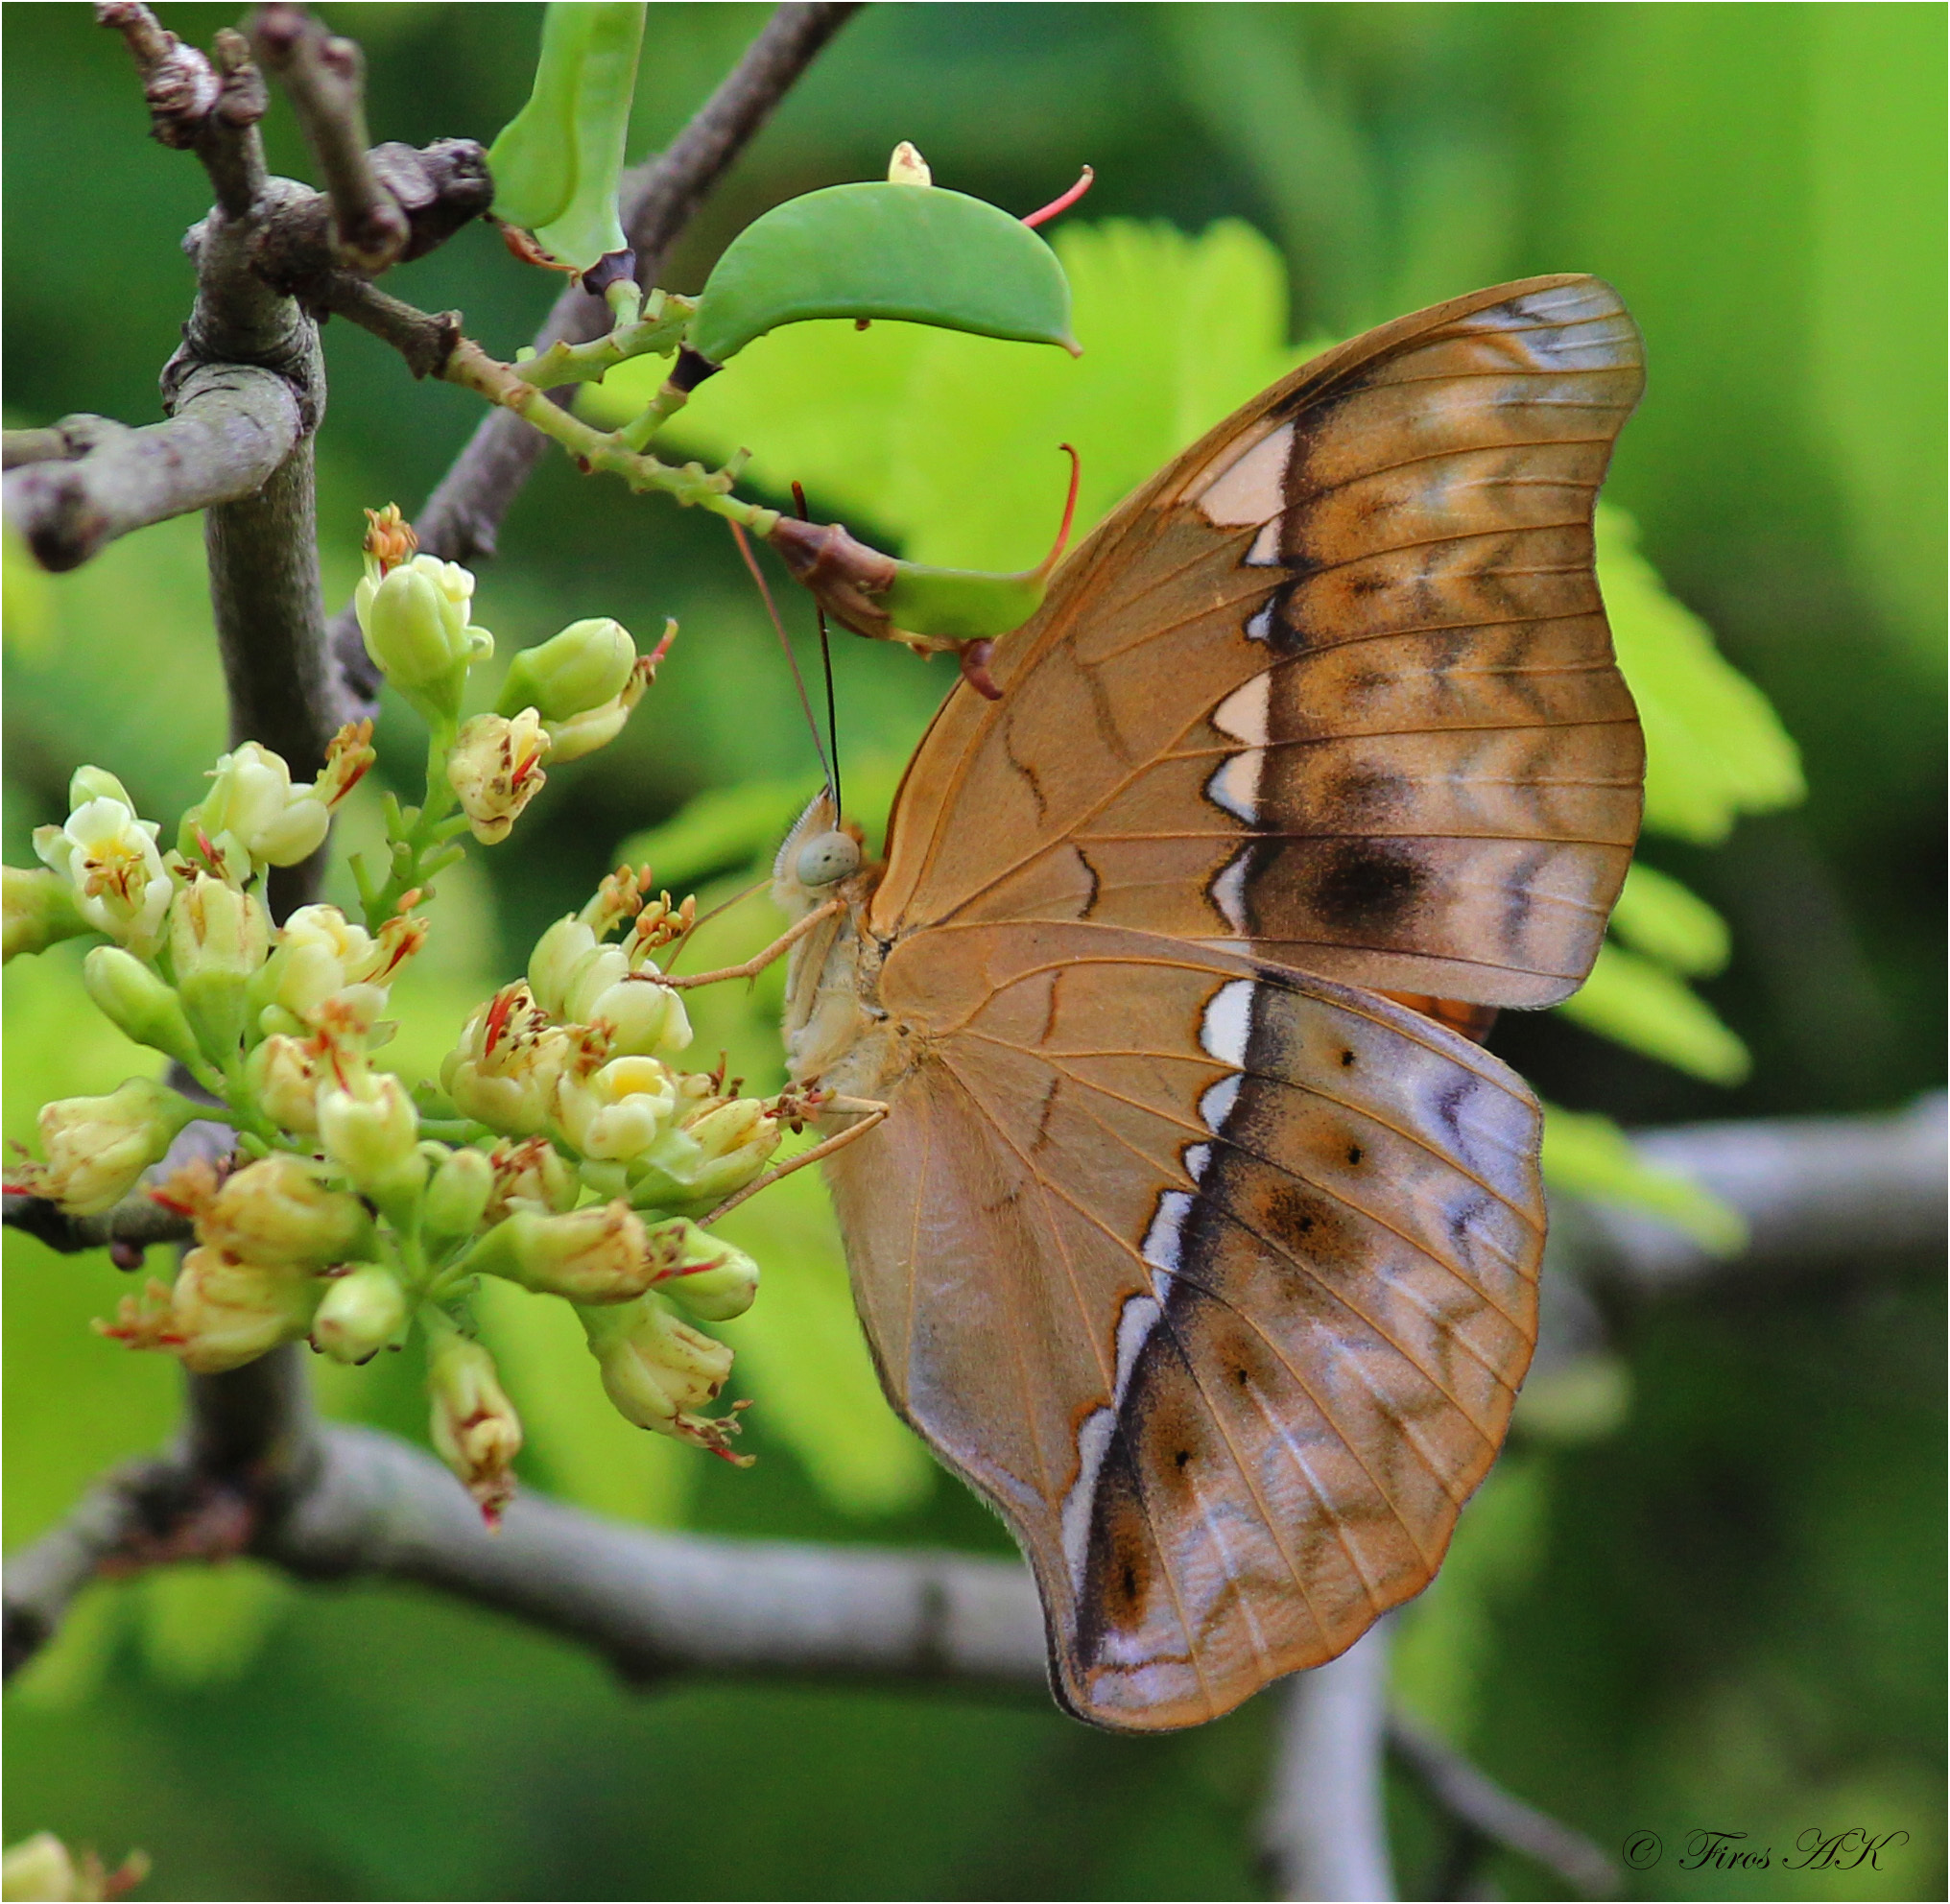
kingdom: Animalia
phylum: Arthropoda
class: Insecta
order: Lepidoptera
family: Nymphalidae
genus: Cirrochroa
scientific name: Cirrochroa thais
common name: Tamil yeoman
